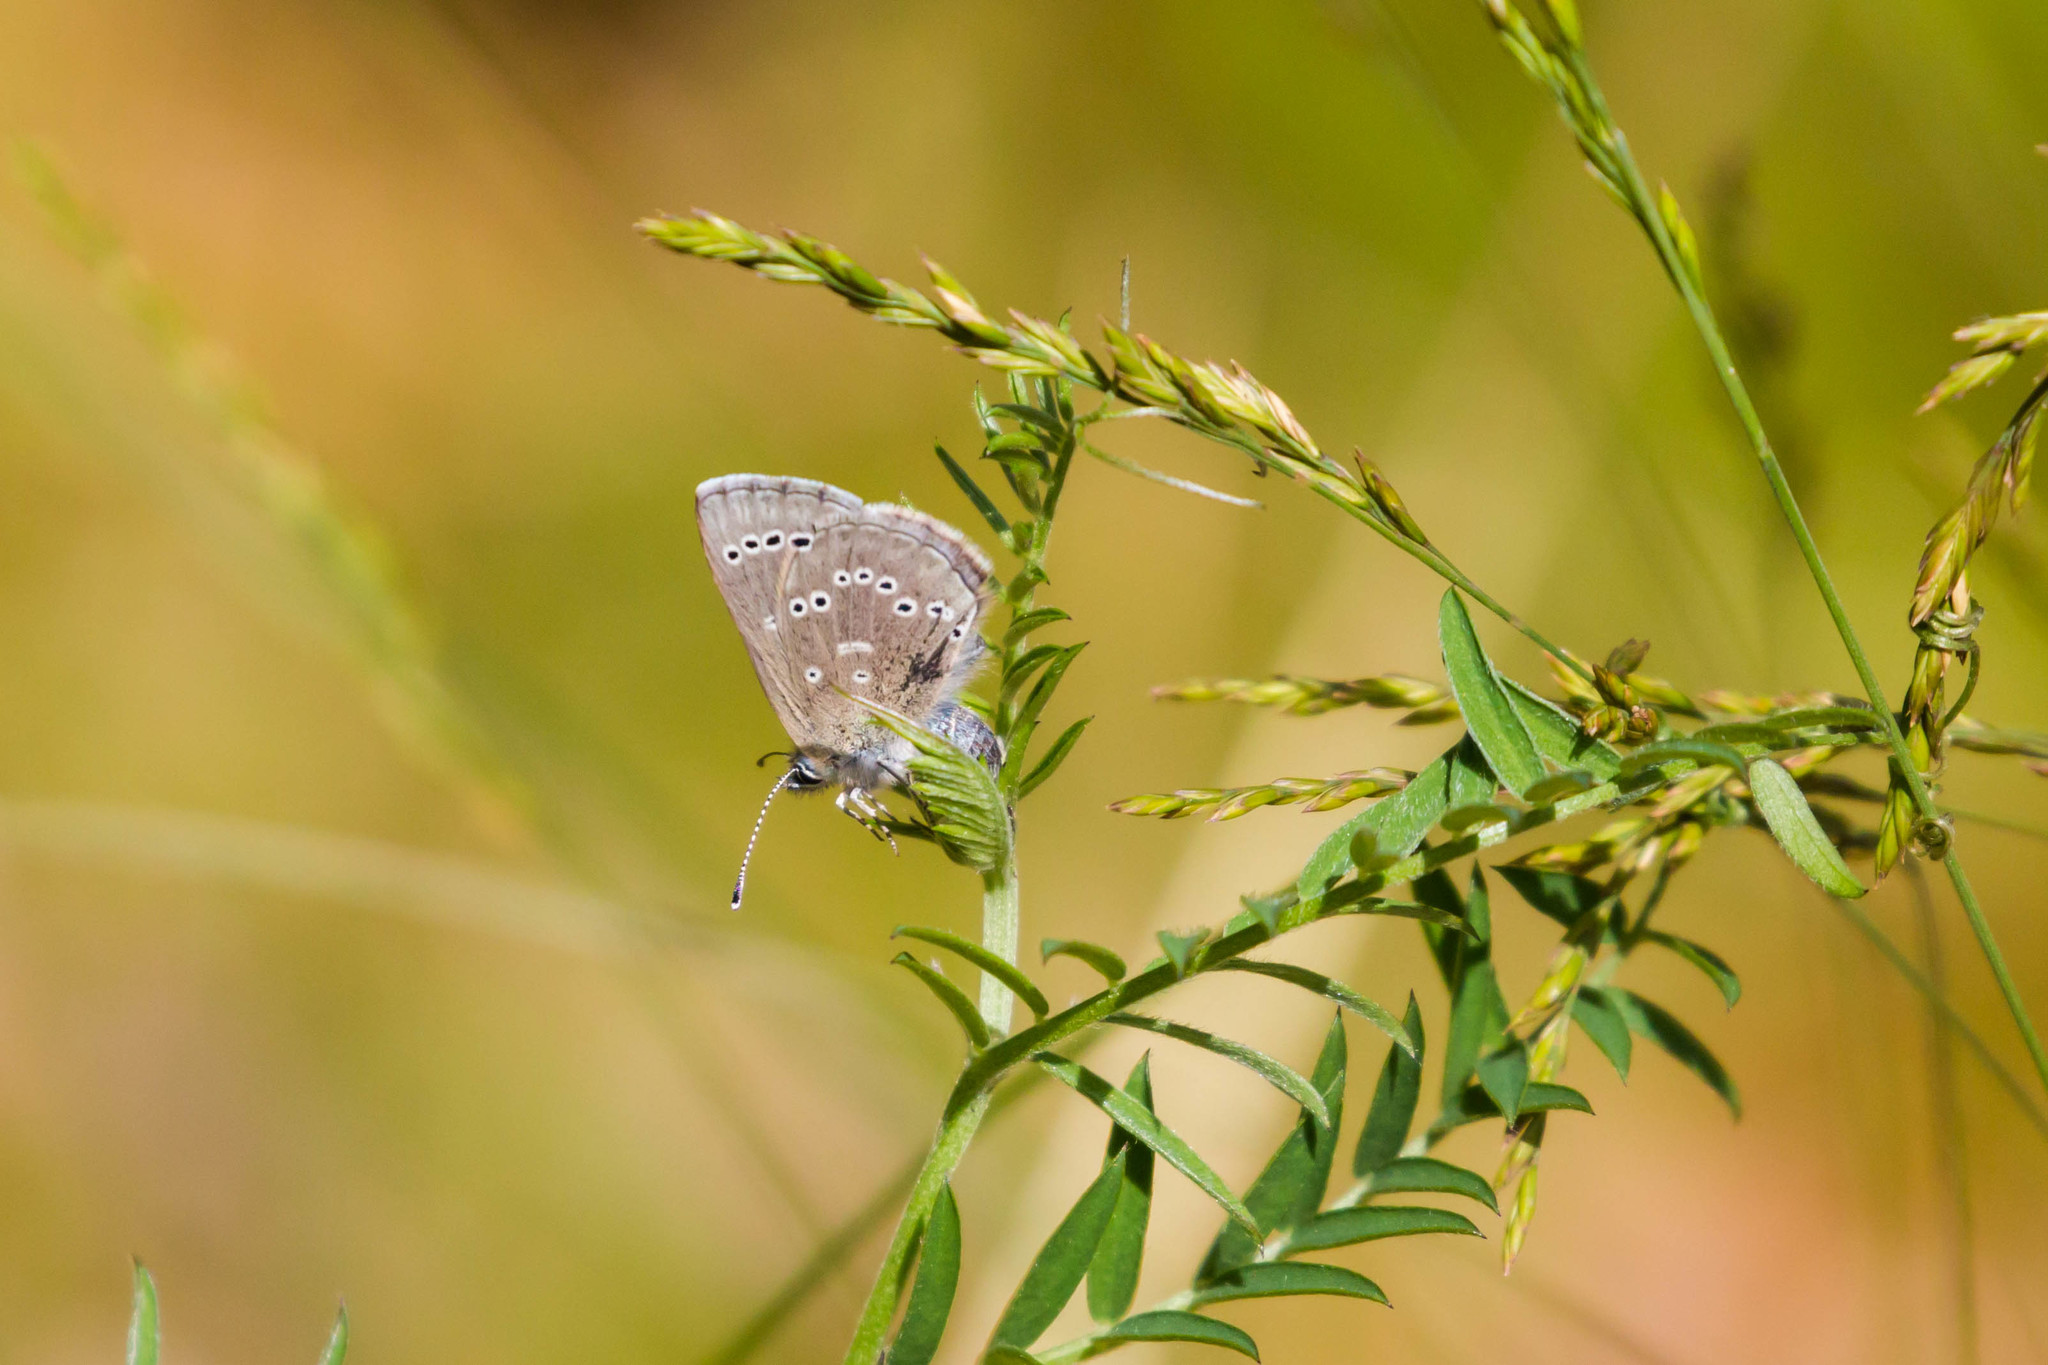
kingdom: Animalia
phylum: Arthropoda
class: Insecta
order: Lepidoptera
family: Lycaenidae
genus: Glaucopsyche
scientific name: Glaucopsyche lygdamus
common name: Silvery blue
